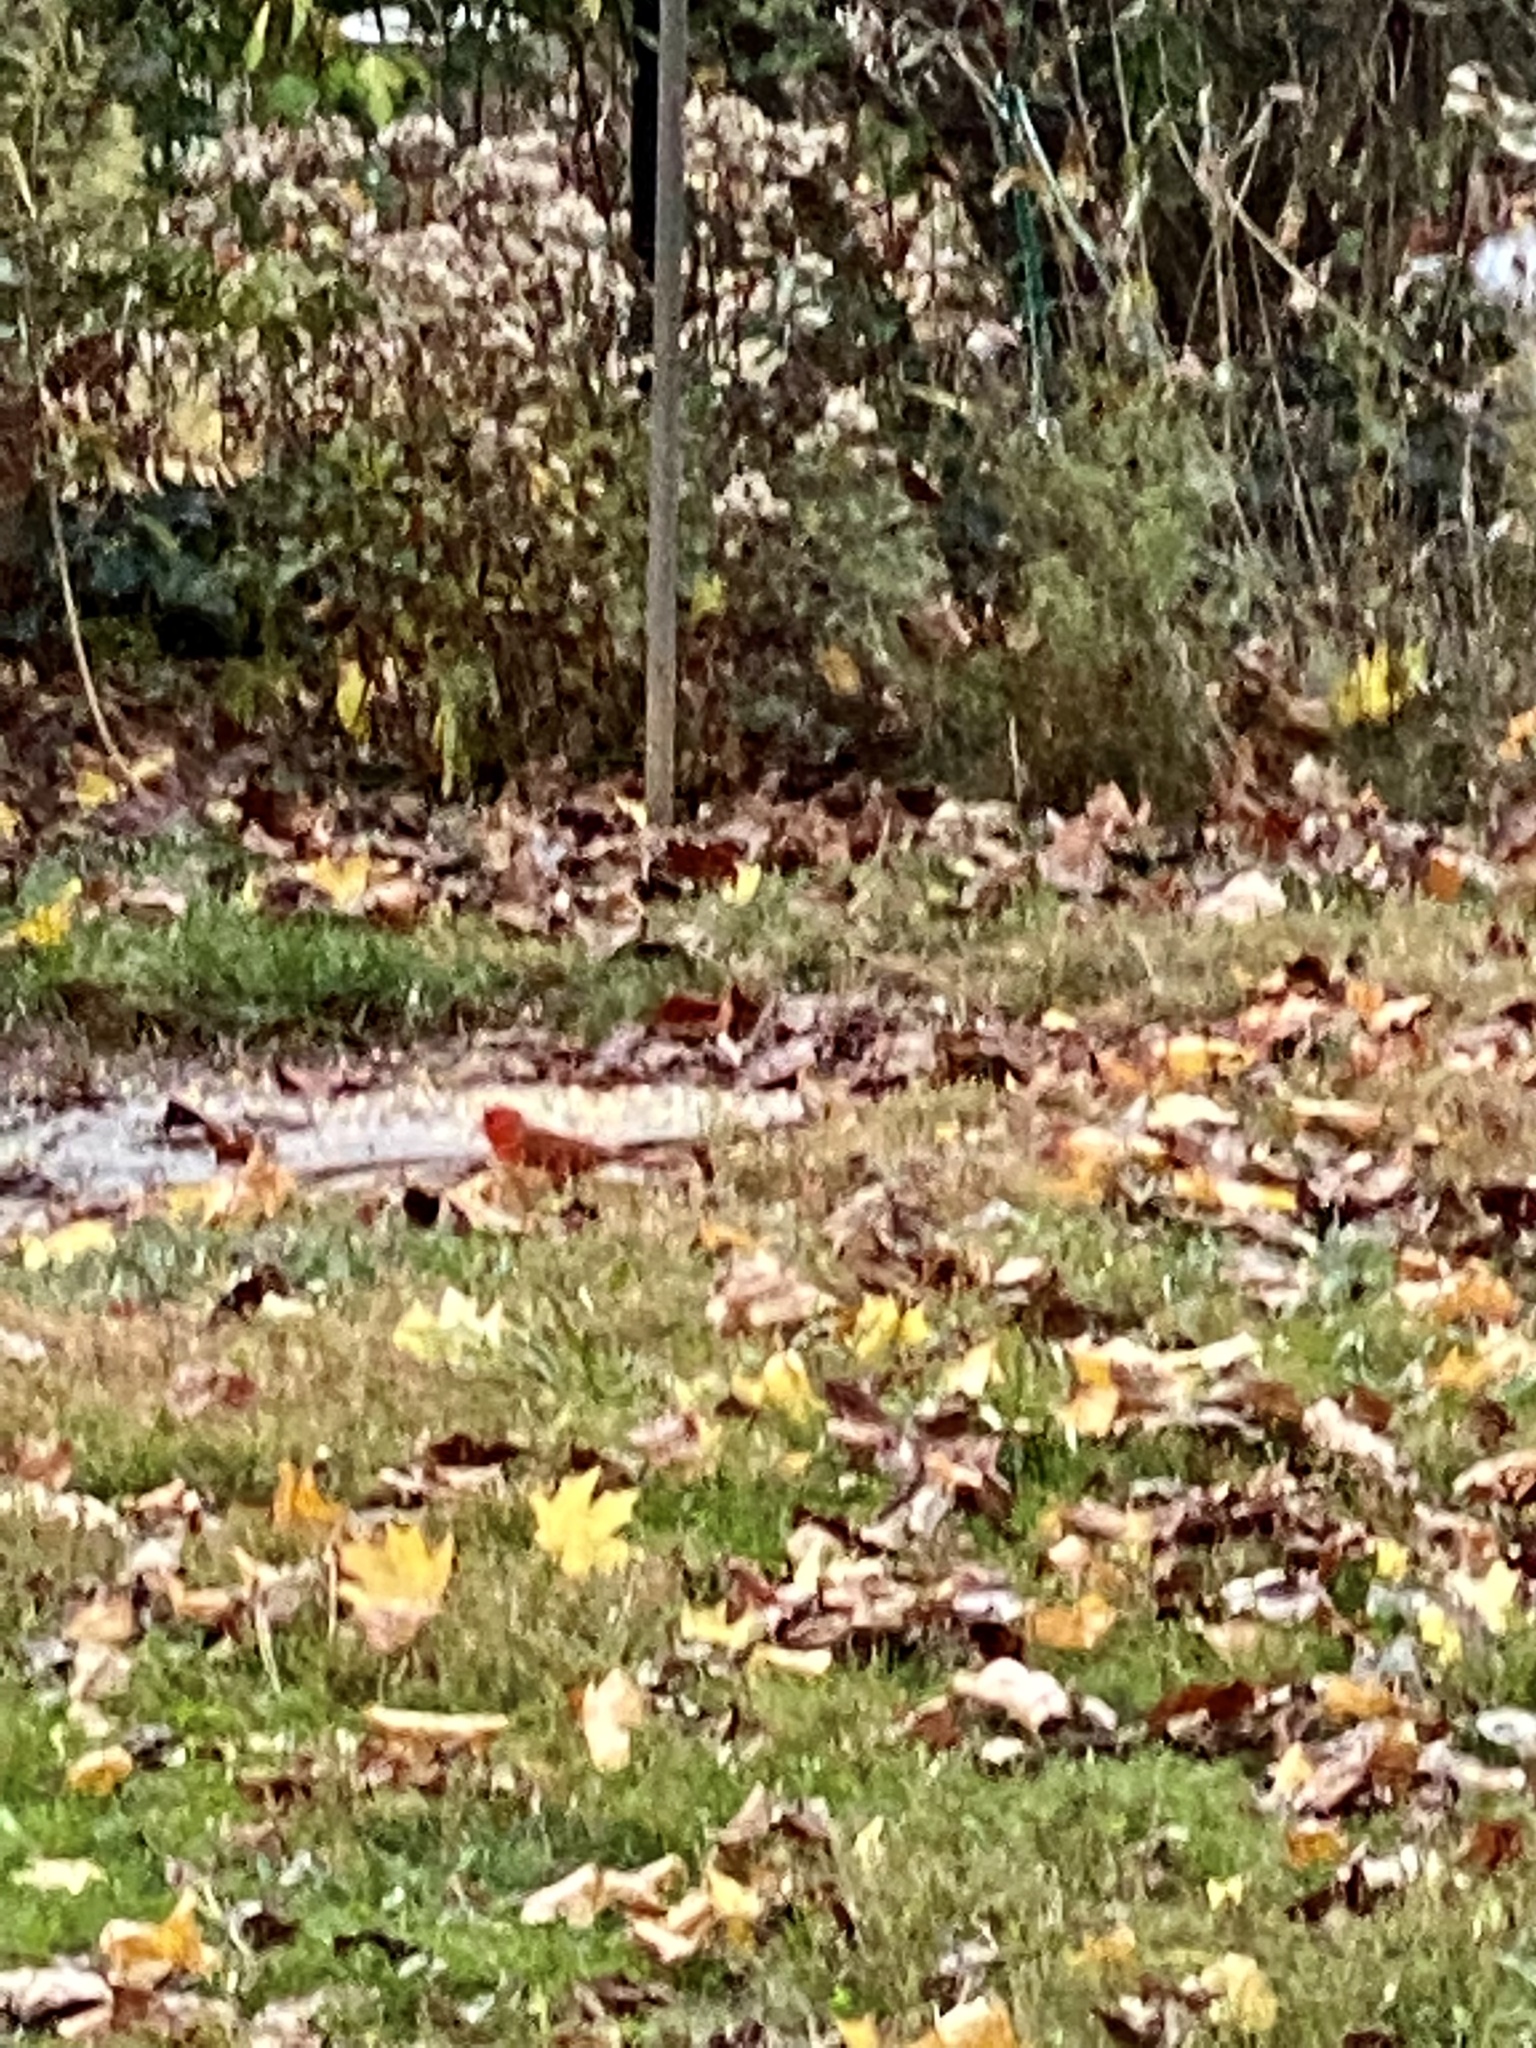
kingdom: Animalia
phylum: Chordata
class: Aves
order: Passeriformes
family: Cardinalidae
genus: Cardinalis
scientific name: Cardinalis cardinalis
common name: Northern cardinal
